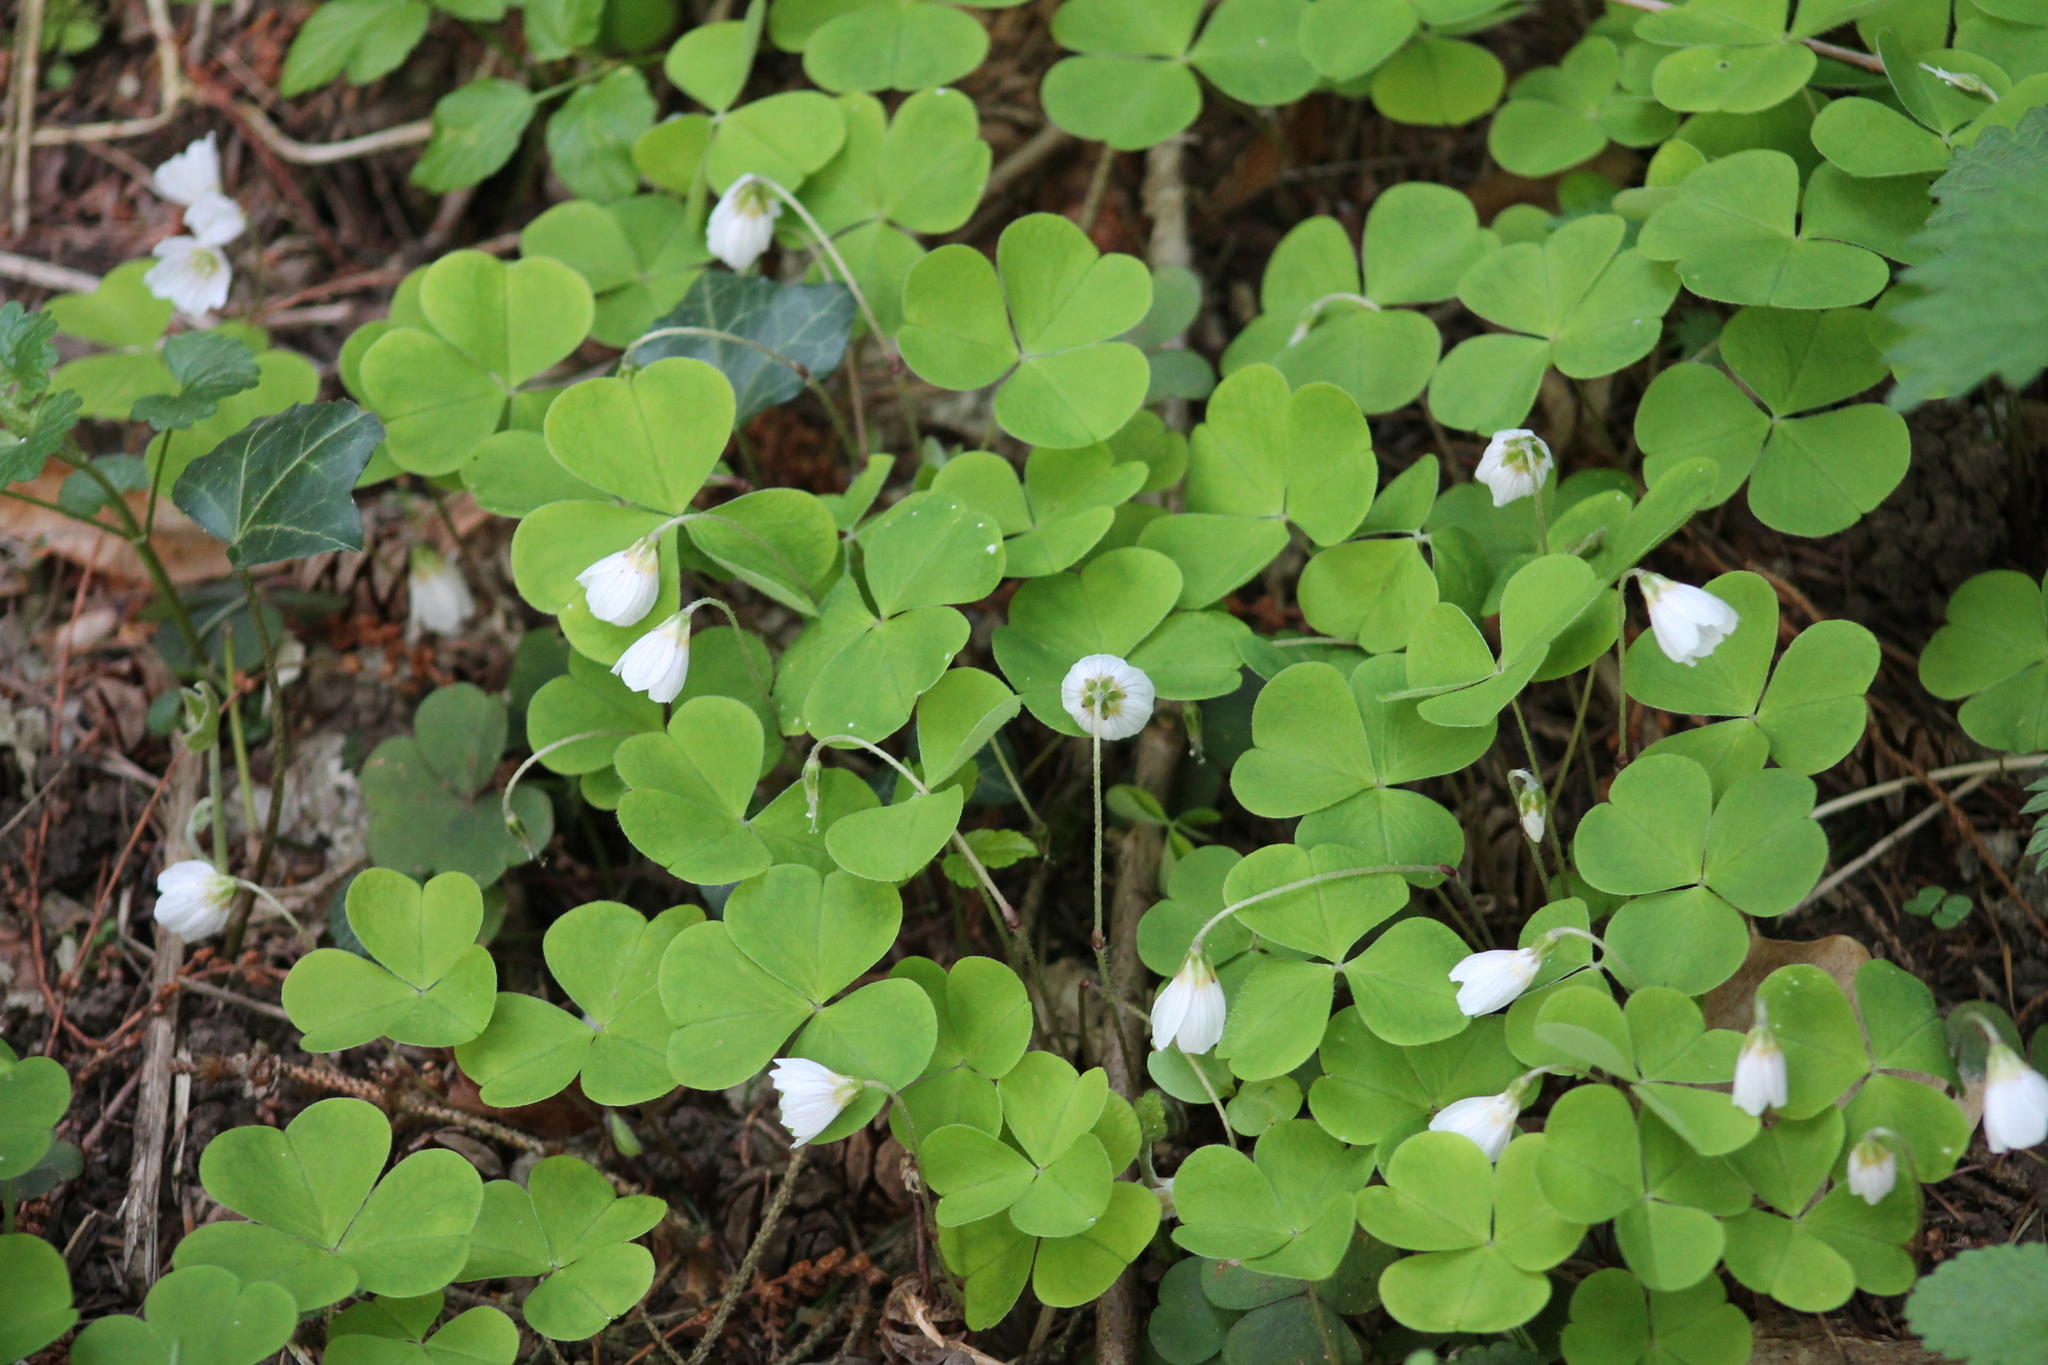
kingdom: Plantae
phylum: Tracheophyta
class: Magnoliopsida
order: Oxalidales
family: Oxalidaceae
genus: Oxalis
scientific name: Oxalis acetosella
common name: Wood-sorrel
